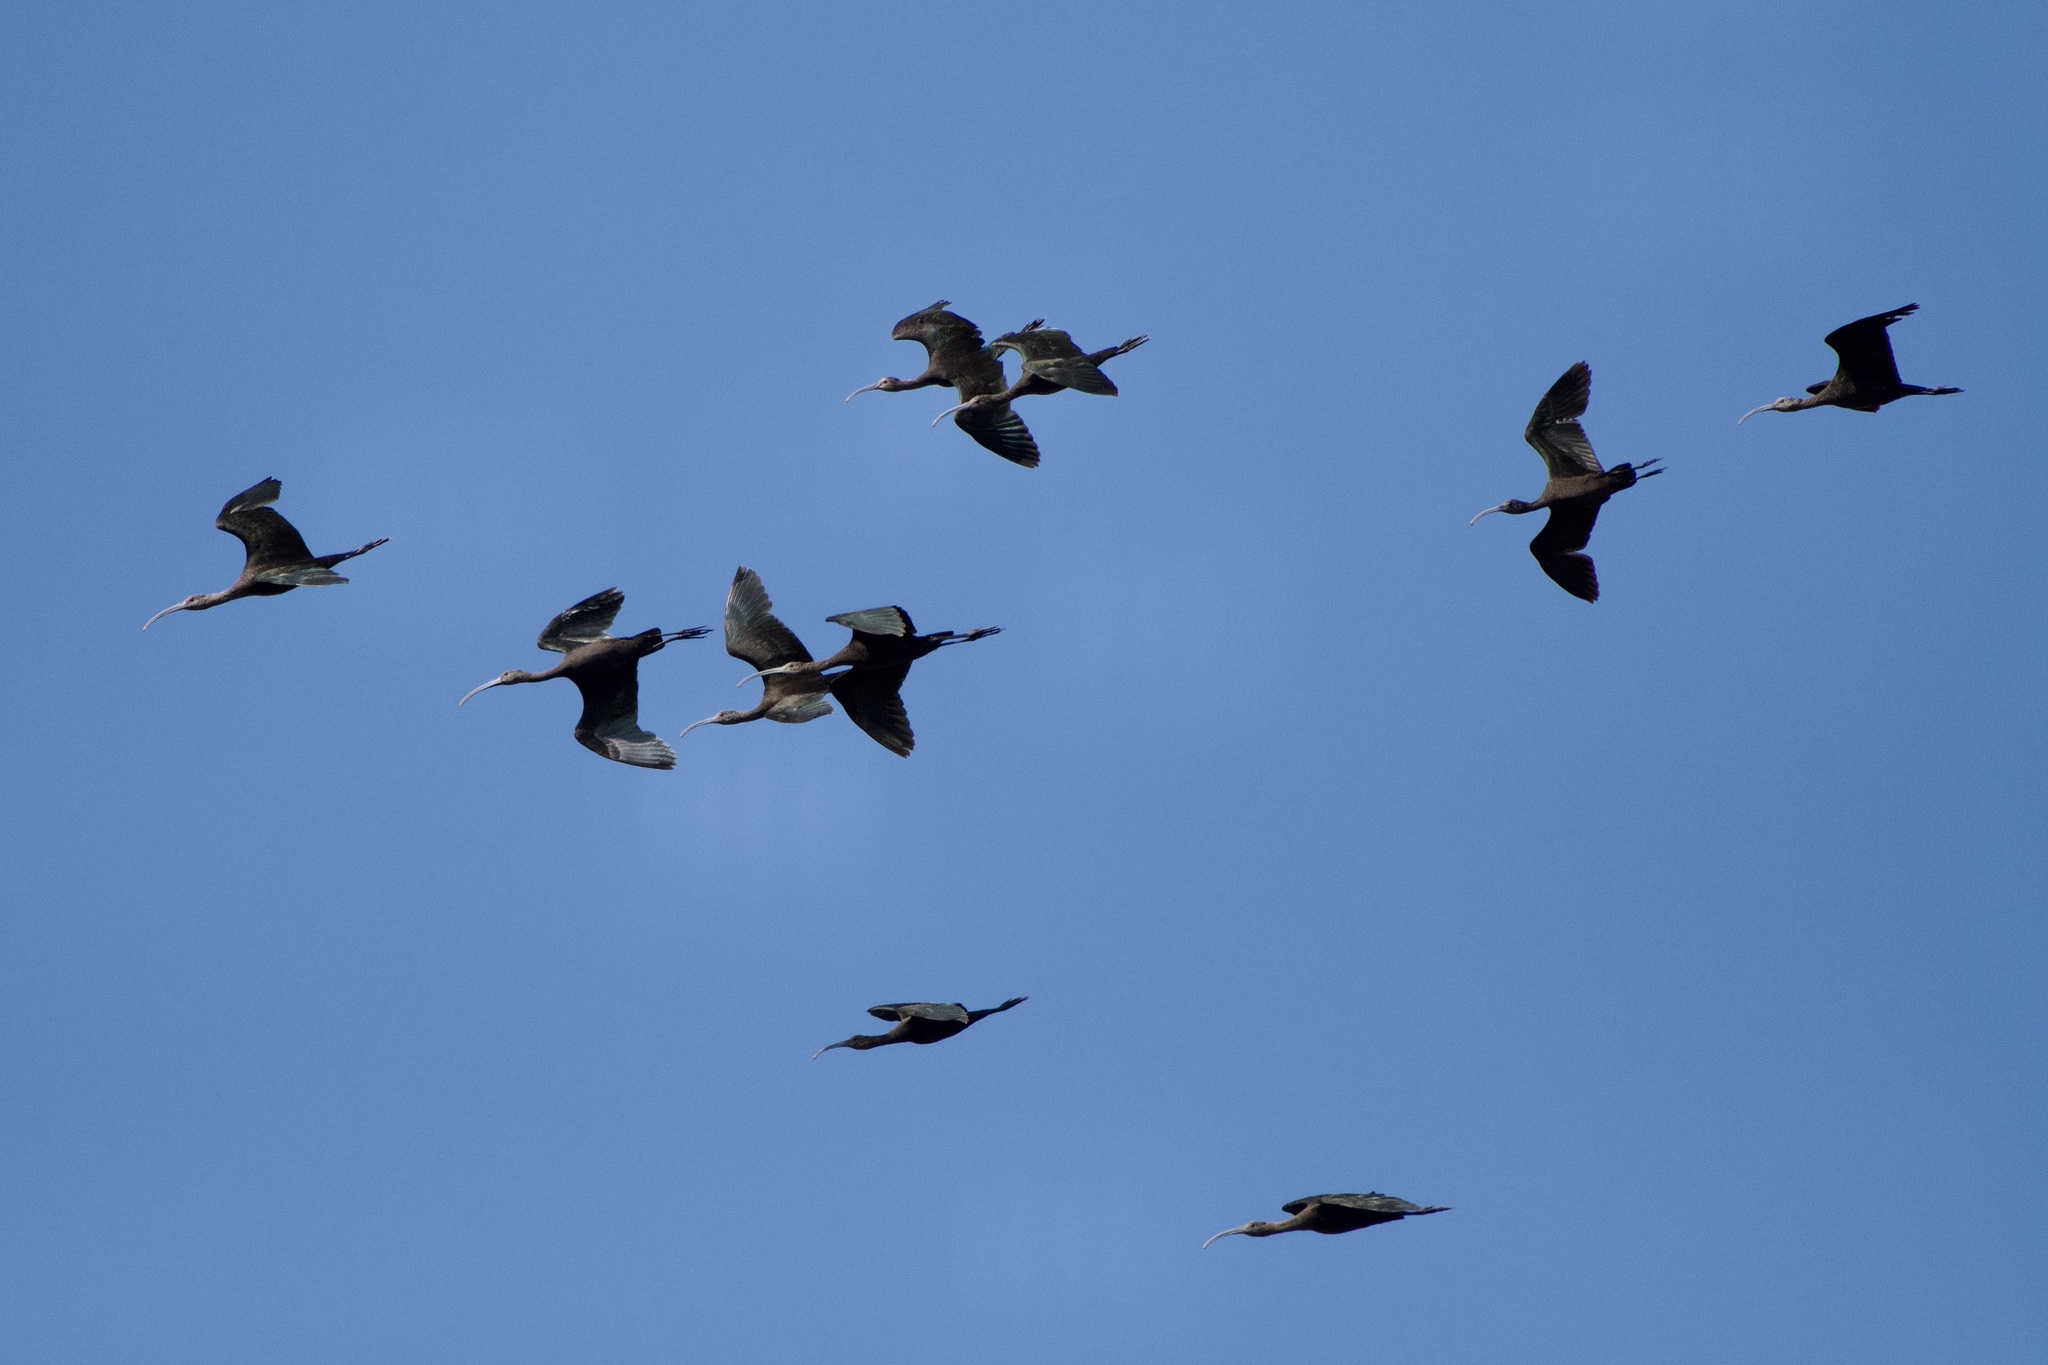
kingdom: Animalia
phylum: Chordata
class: Aves
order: Pelecaniformes
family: Threskiornithidae
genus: Plegadis
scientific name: Plegadis chihi
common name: White-faced ibis
